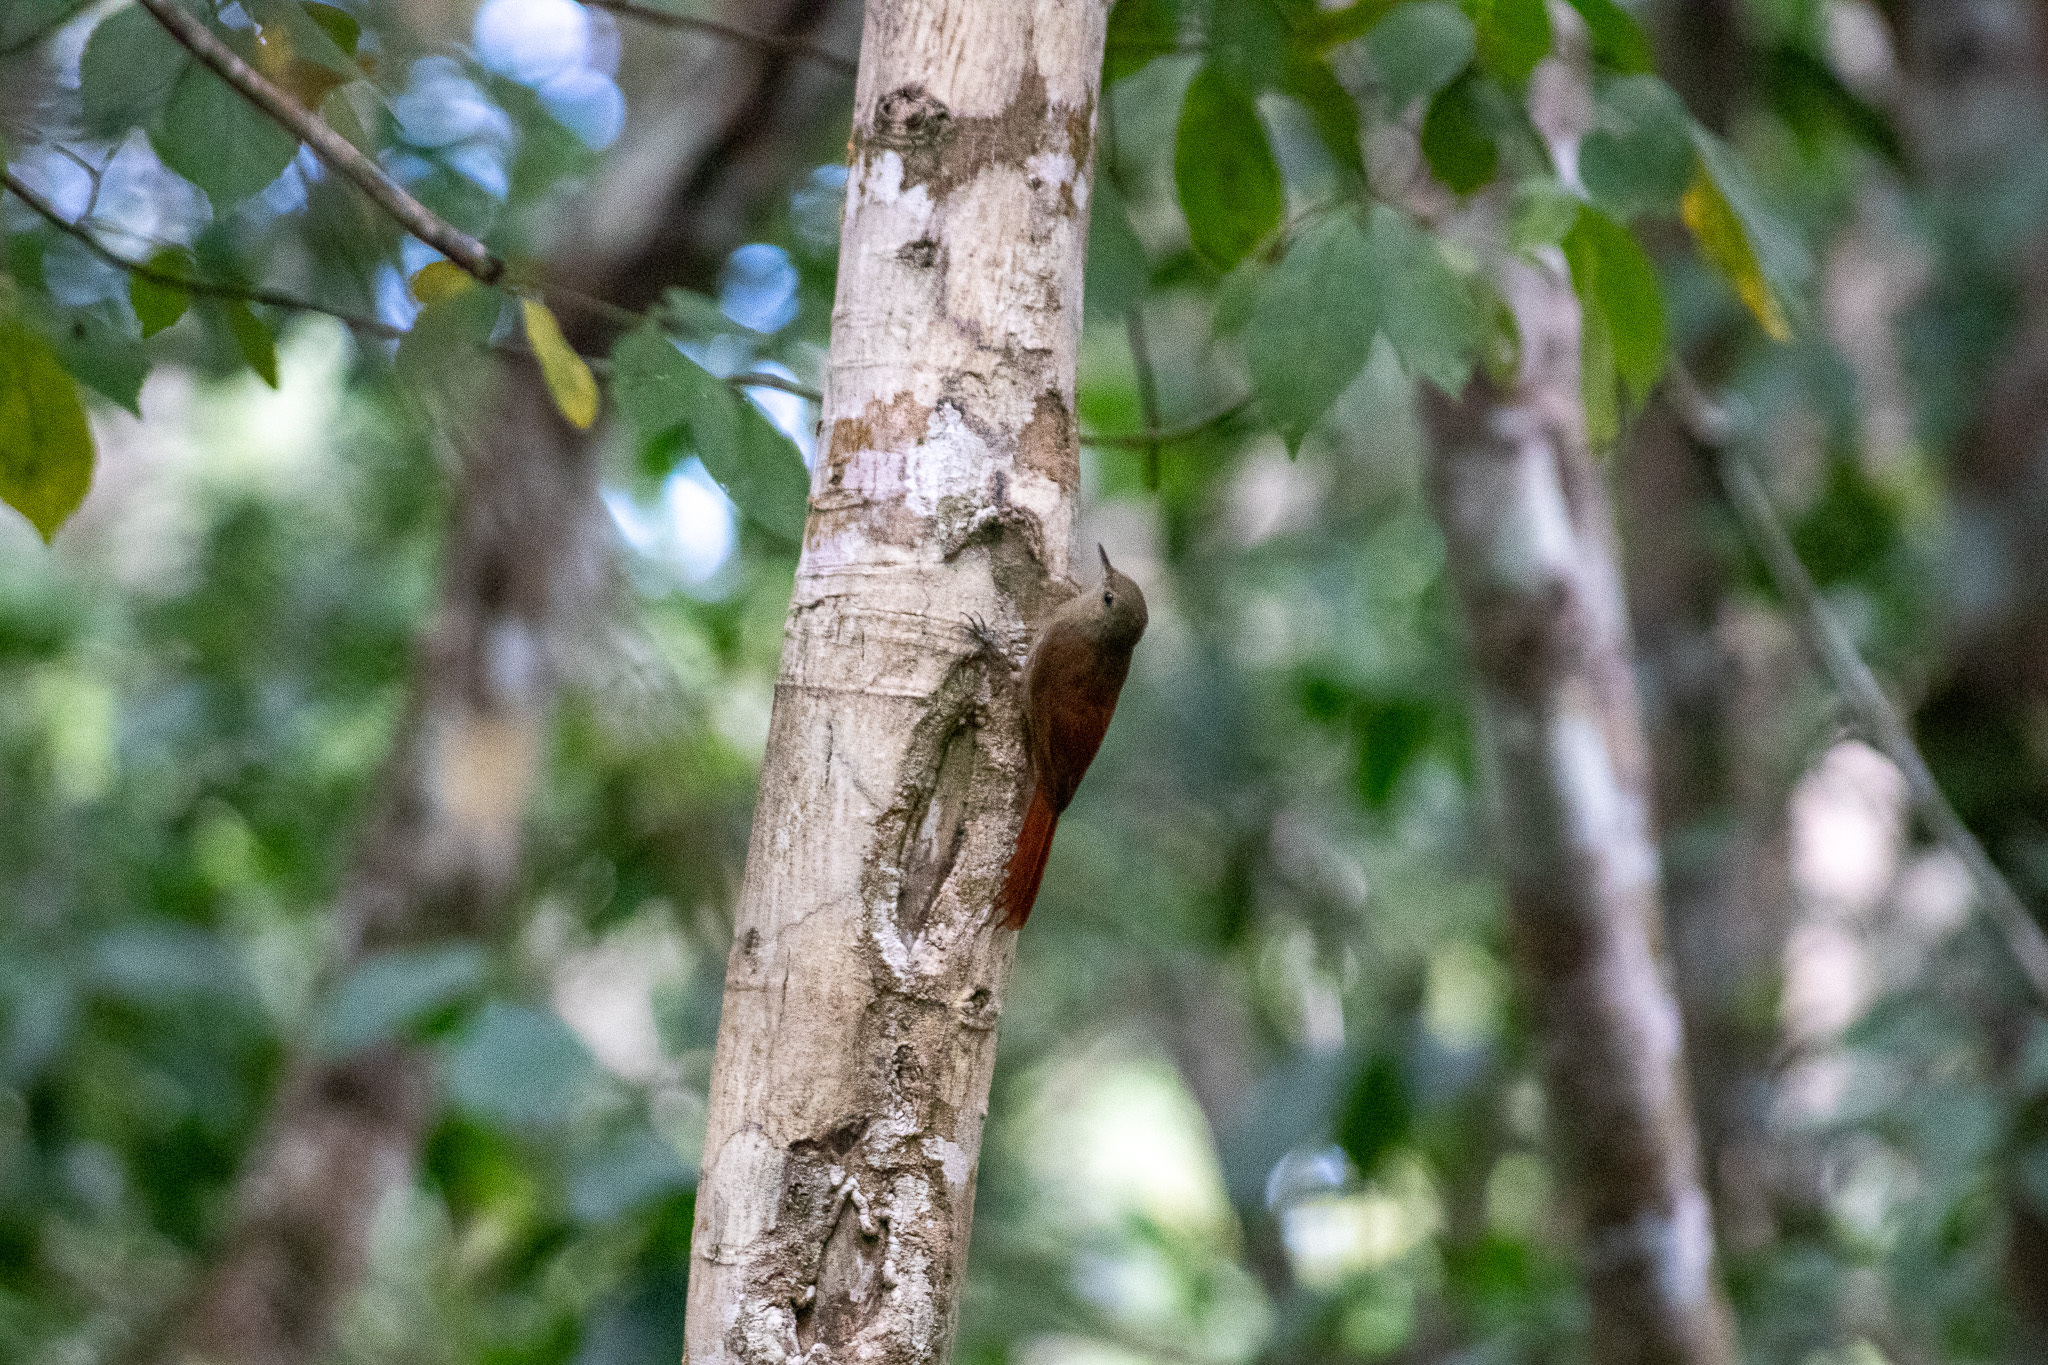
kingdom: Animalia
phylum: Chordata
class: Aves
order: Passeriformes
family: Furnariidae
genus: Sittasomus
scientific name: Sittasomus griseicapillus
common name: Olivaceous woodcreeper
